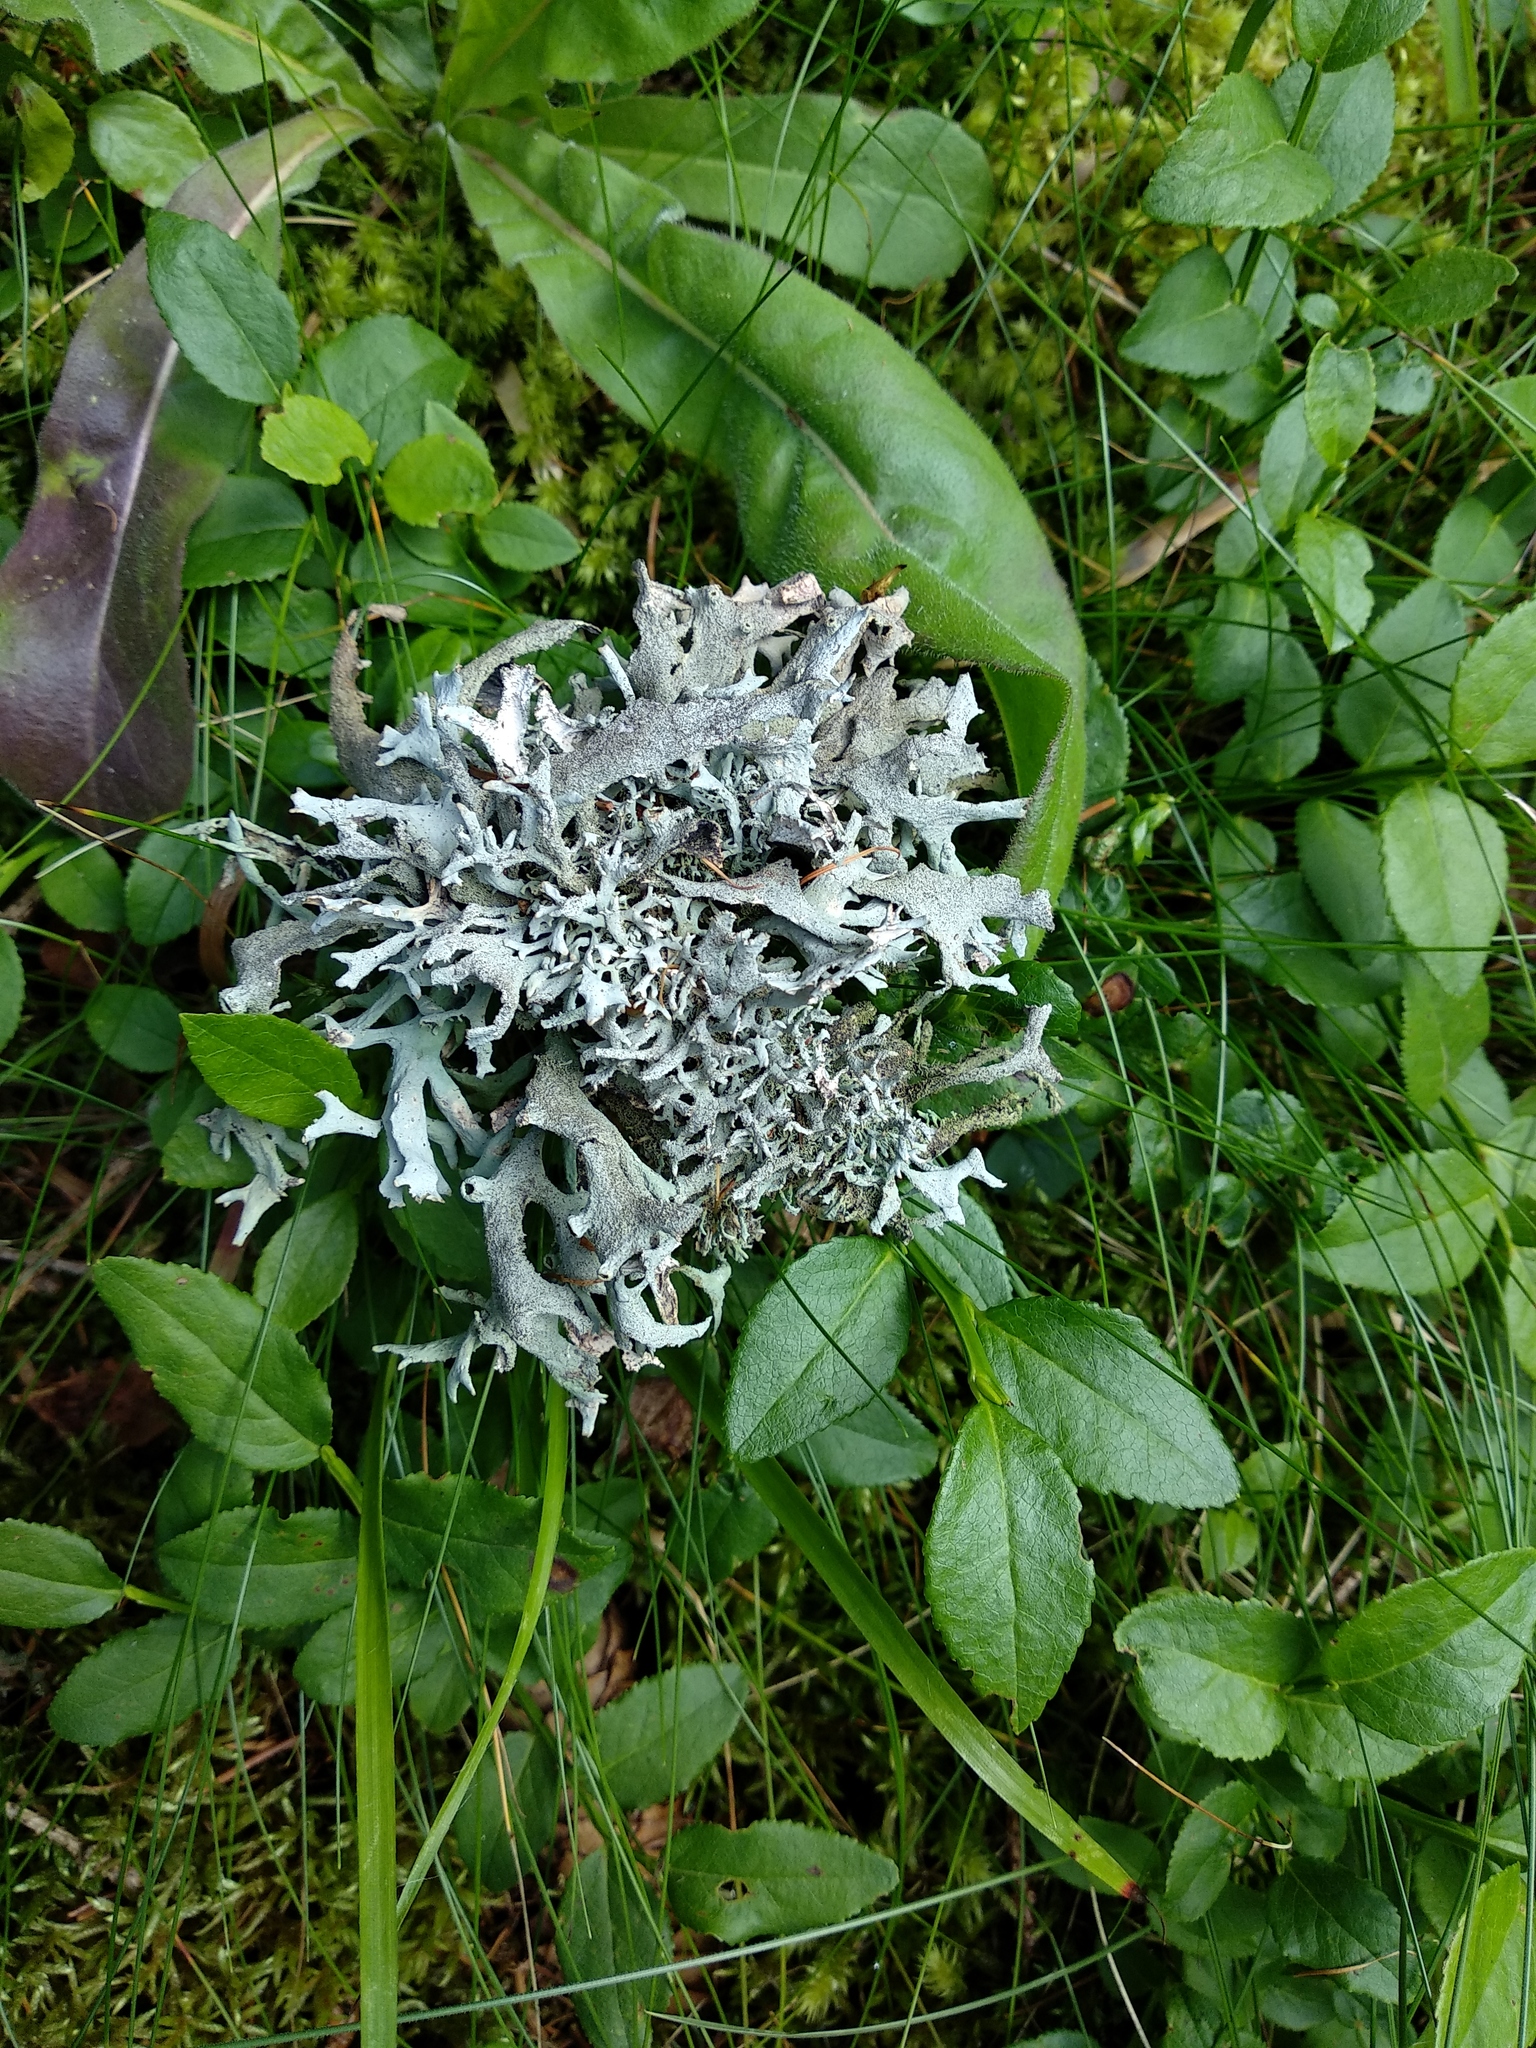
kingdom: Fungi
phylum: Ascomycota
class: Lecanoromycetes
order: Lecanorales
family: Parmeliaceae
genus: Pseudevernia
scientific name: Pseudevernia furfuracea
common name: Tree moss
